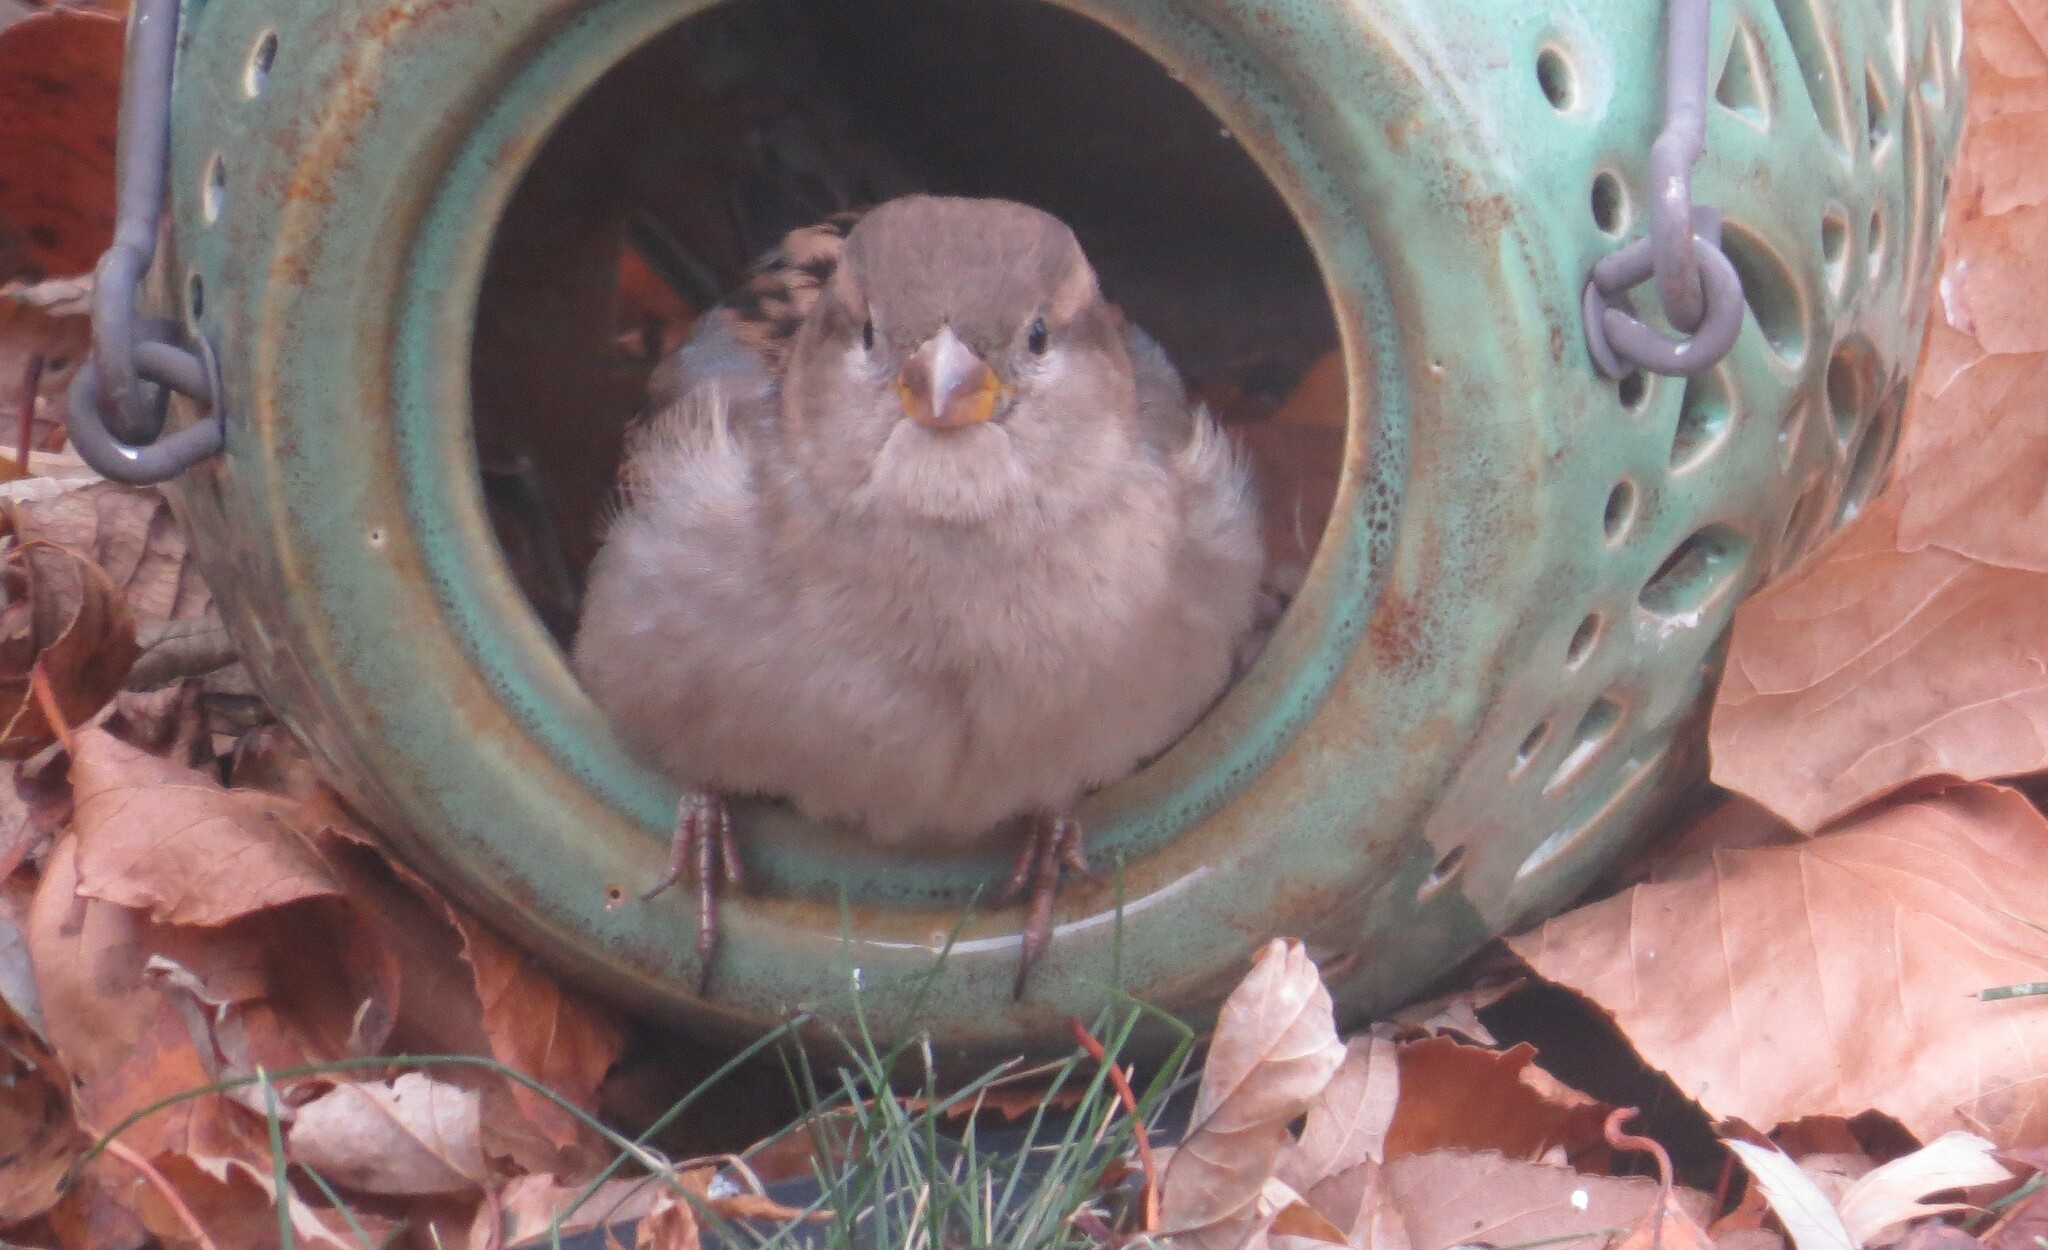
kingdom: Animalia
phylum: Chordata
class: Aves
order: Passeriformes
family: Passeridae
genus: Passer
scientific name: Passer domesticus
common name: House sparrow
